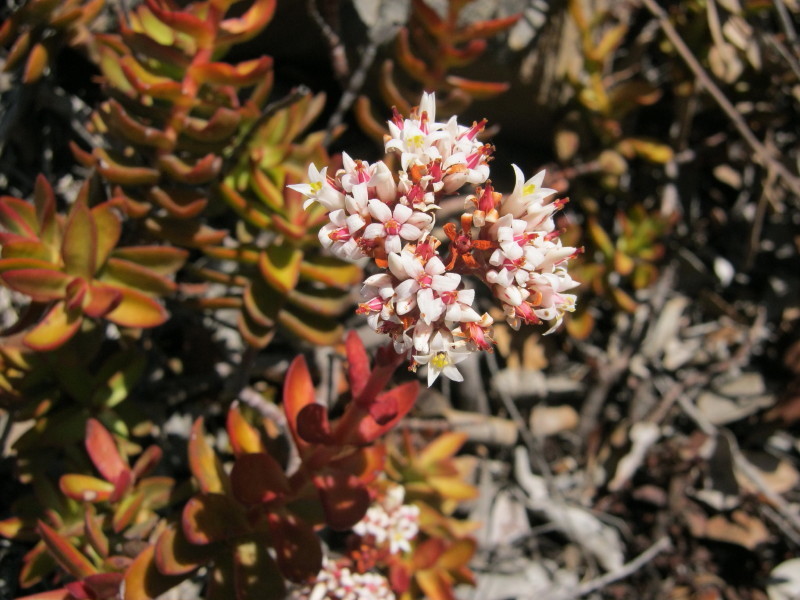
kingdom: Plantae
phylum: Tracheophyta
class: Magnoliopsida
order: Saxifragales
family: Crassulaceae
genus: Crassula
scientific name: Crassula rubricaulis
